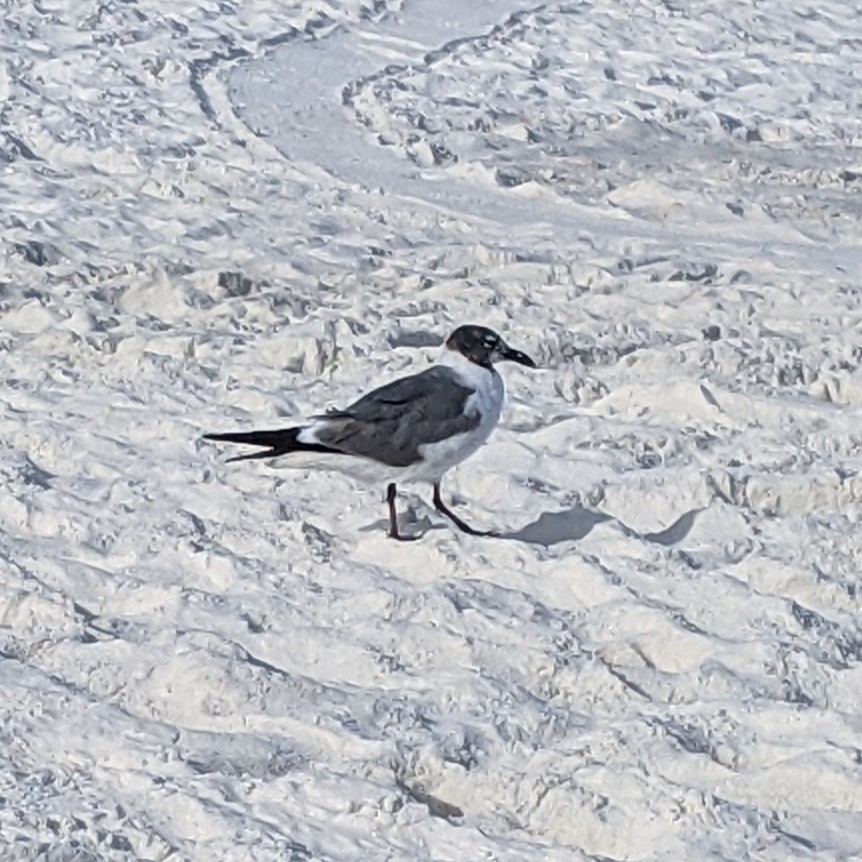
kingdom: Animalia
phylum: Chordata
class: Aves
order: Charadriiformes
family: Laridae
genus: Leucophaeus
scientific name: Leucophaeus atricilla
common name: Laughing gull
